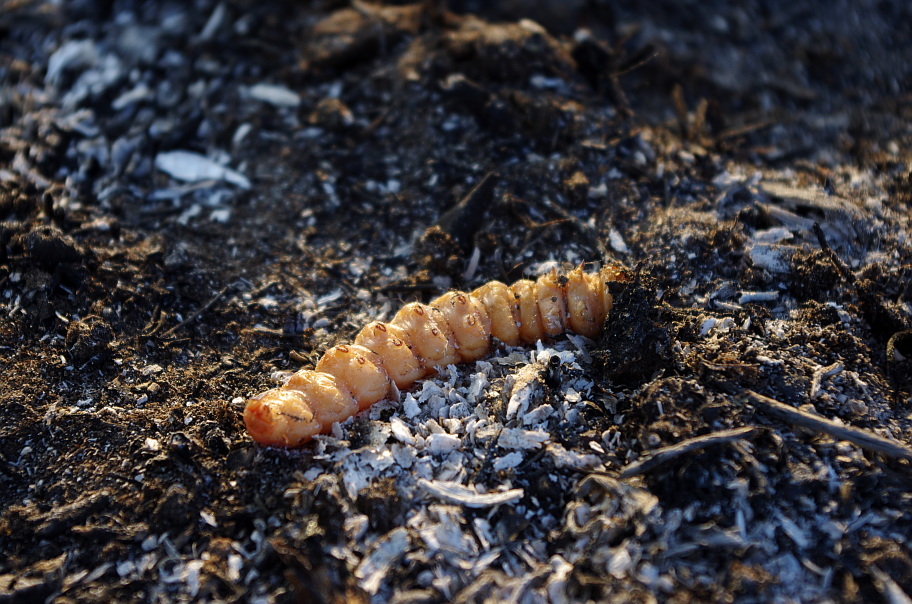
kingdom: Animalia
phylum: Arthropoda
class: Insecta
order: Lepidoptera
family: Cossidae
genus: Cossus
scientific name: Cossus cossus
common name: Goat moth
